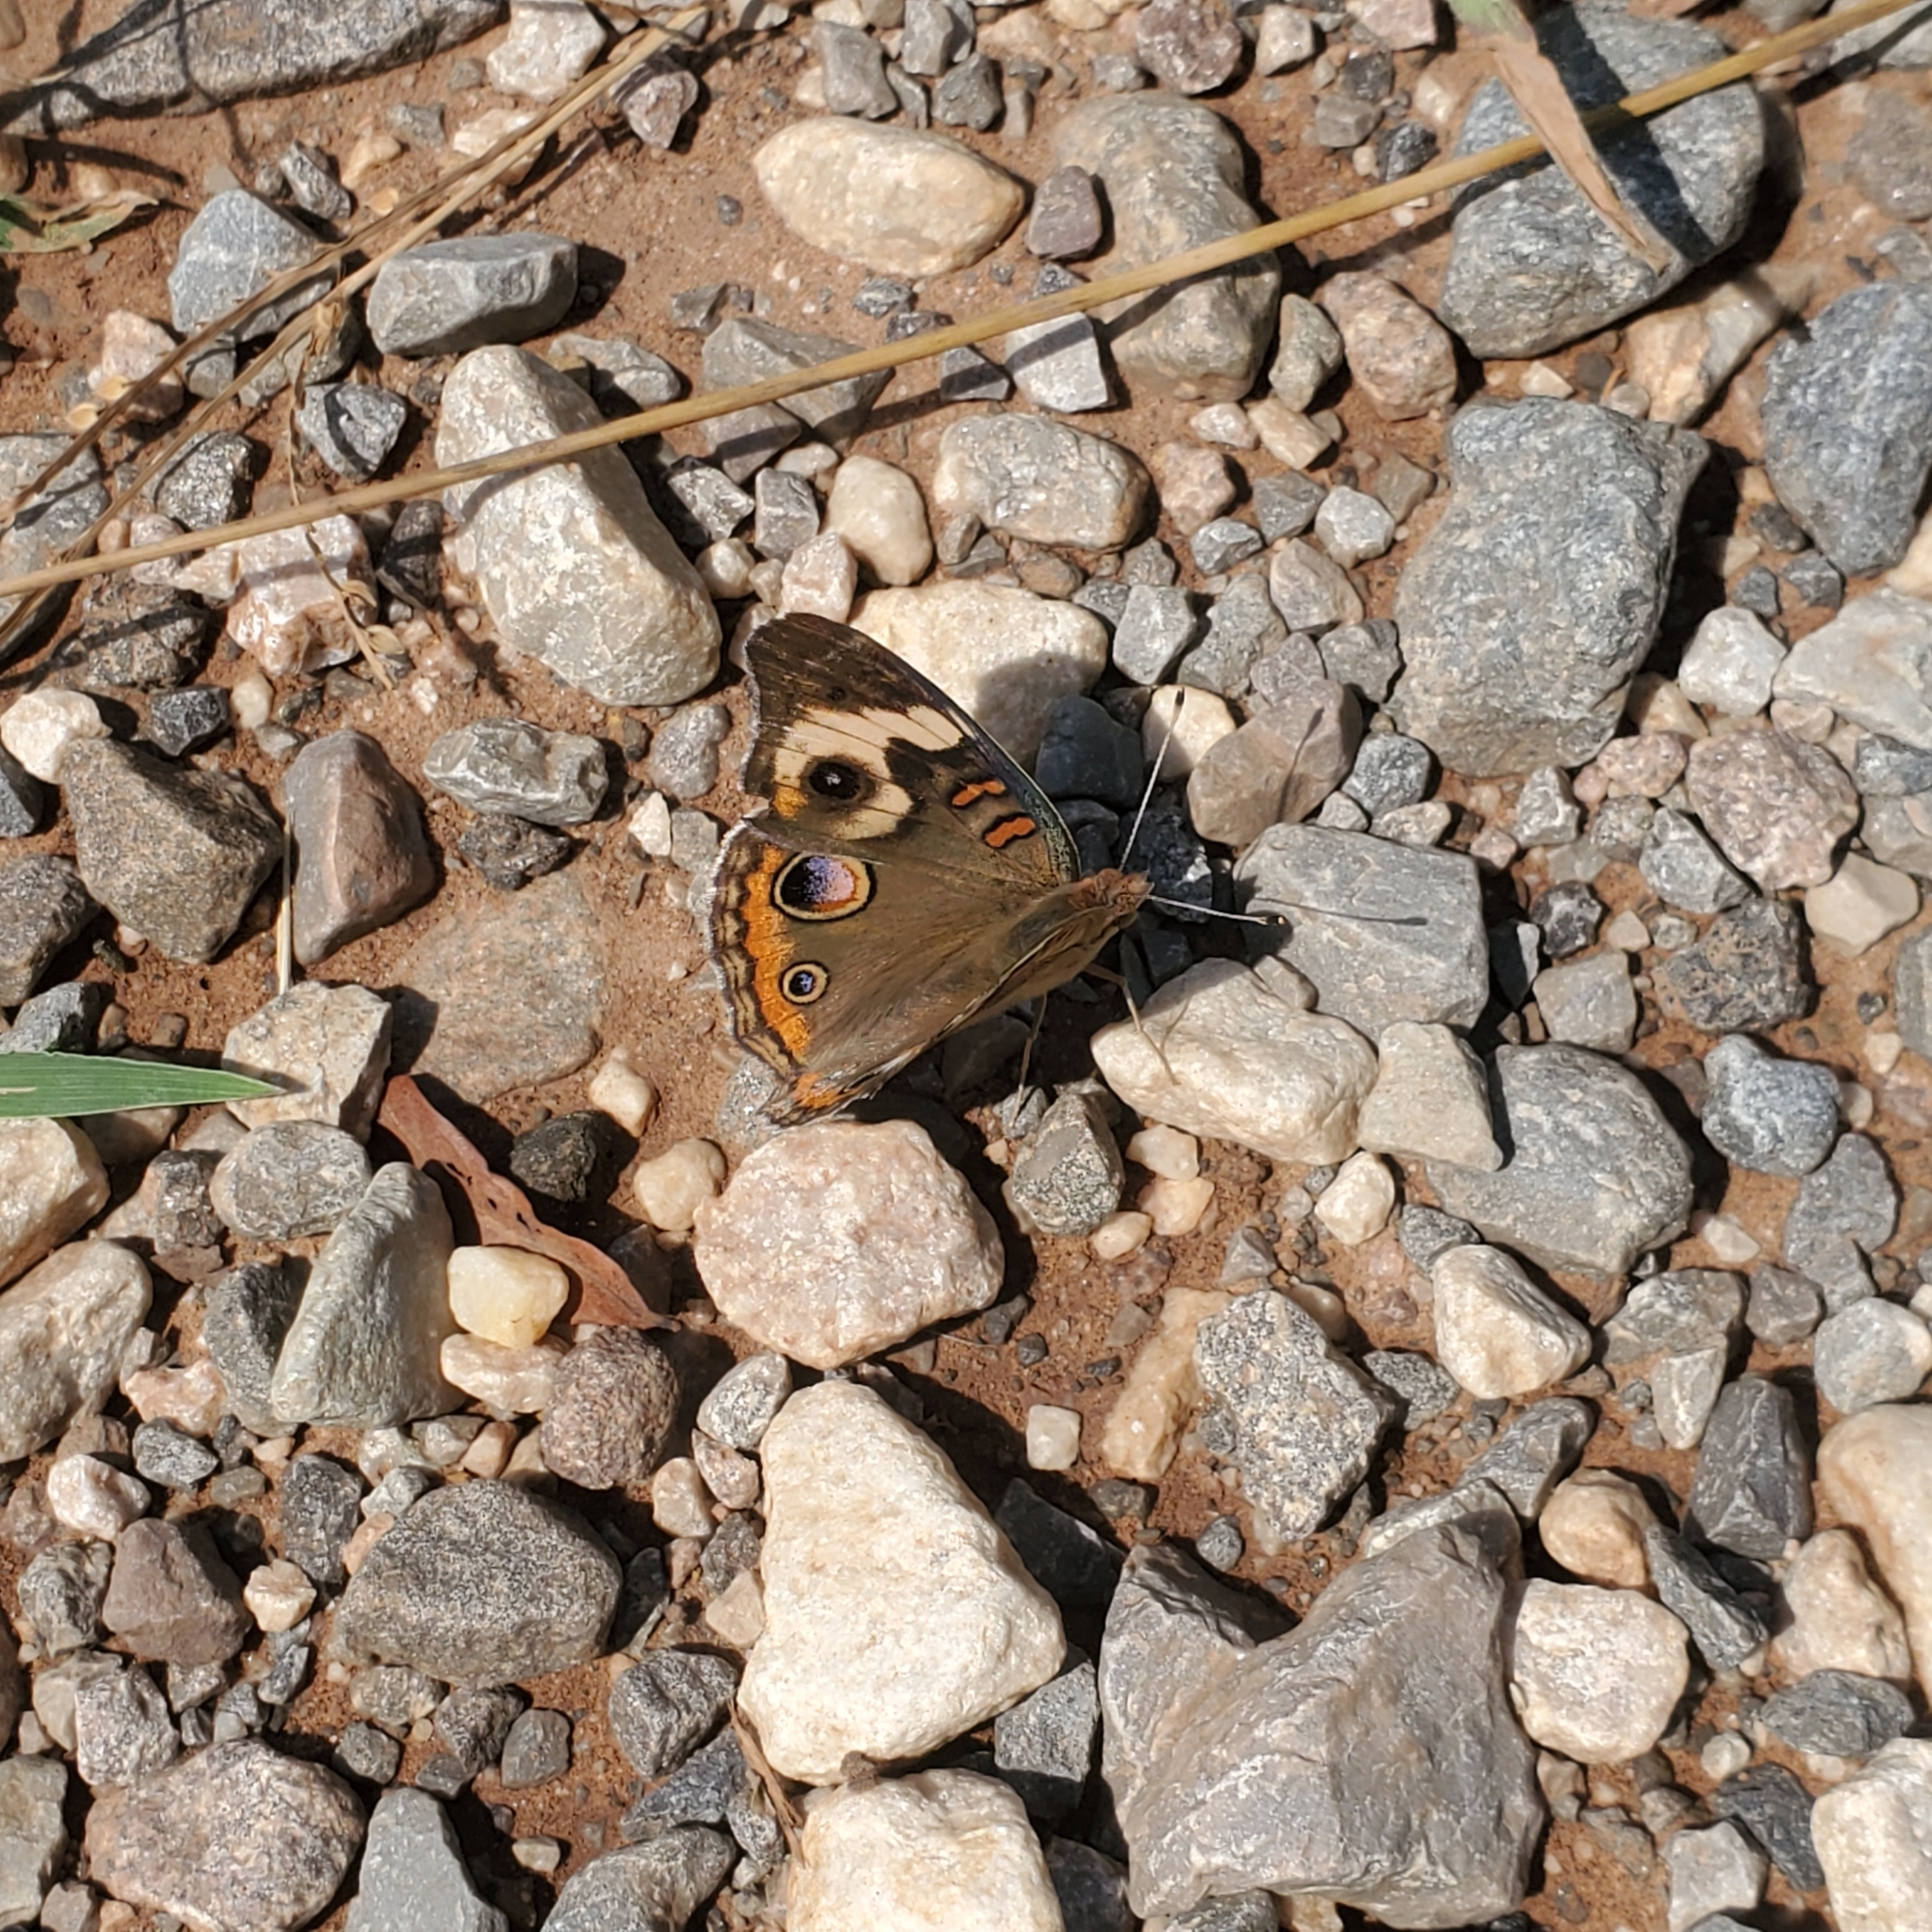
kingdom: Animalia
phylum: Arthropoda
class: Insecta
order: Lepidoptera
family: Nymphalidae
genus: Junonia
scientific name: Junonia coenia
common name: Common buckeye
